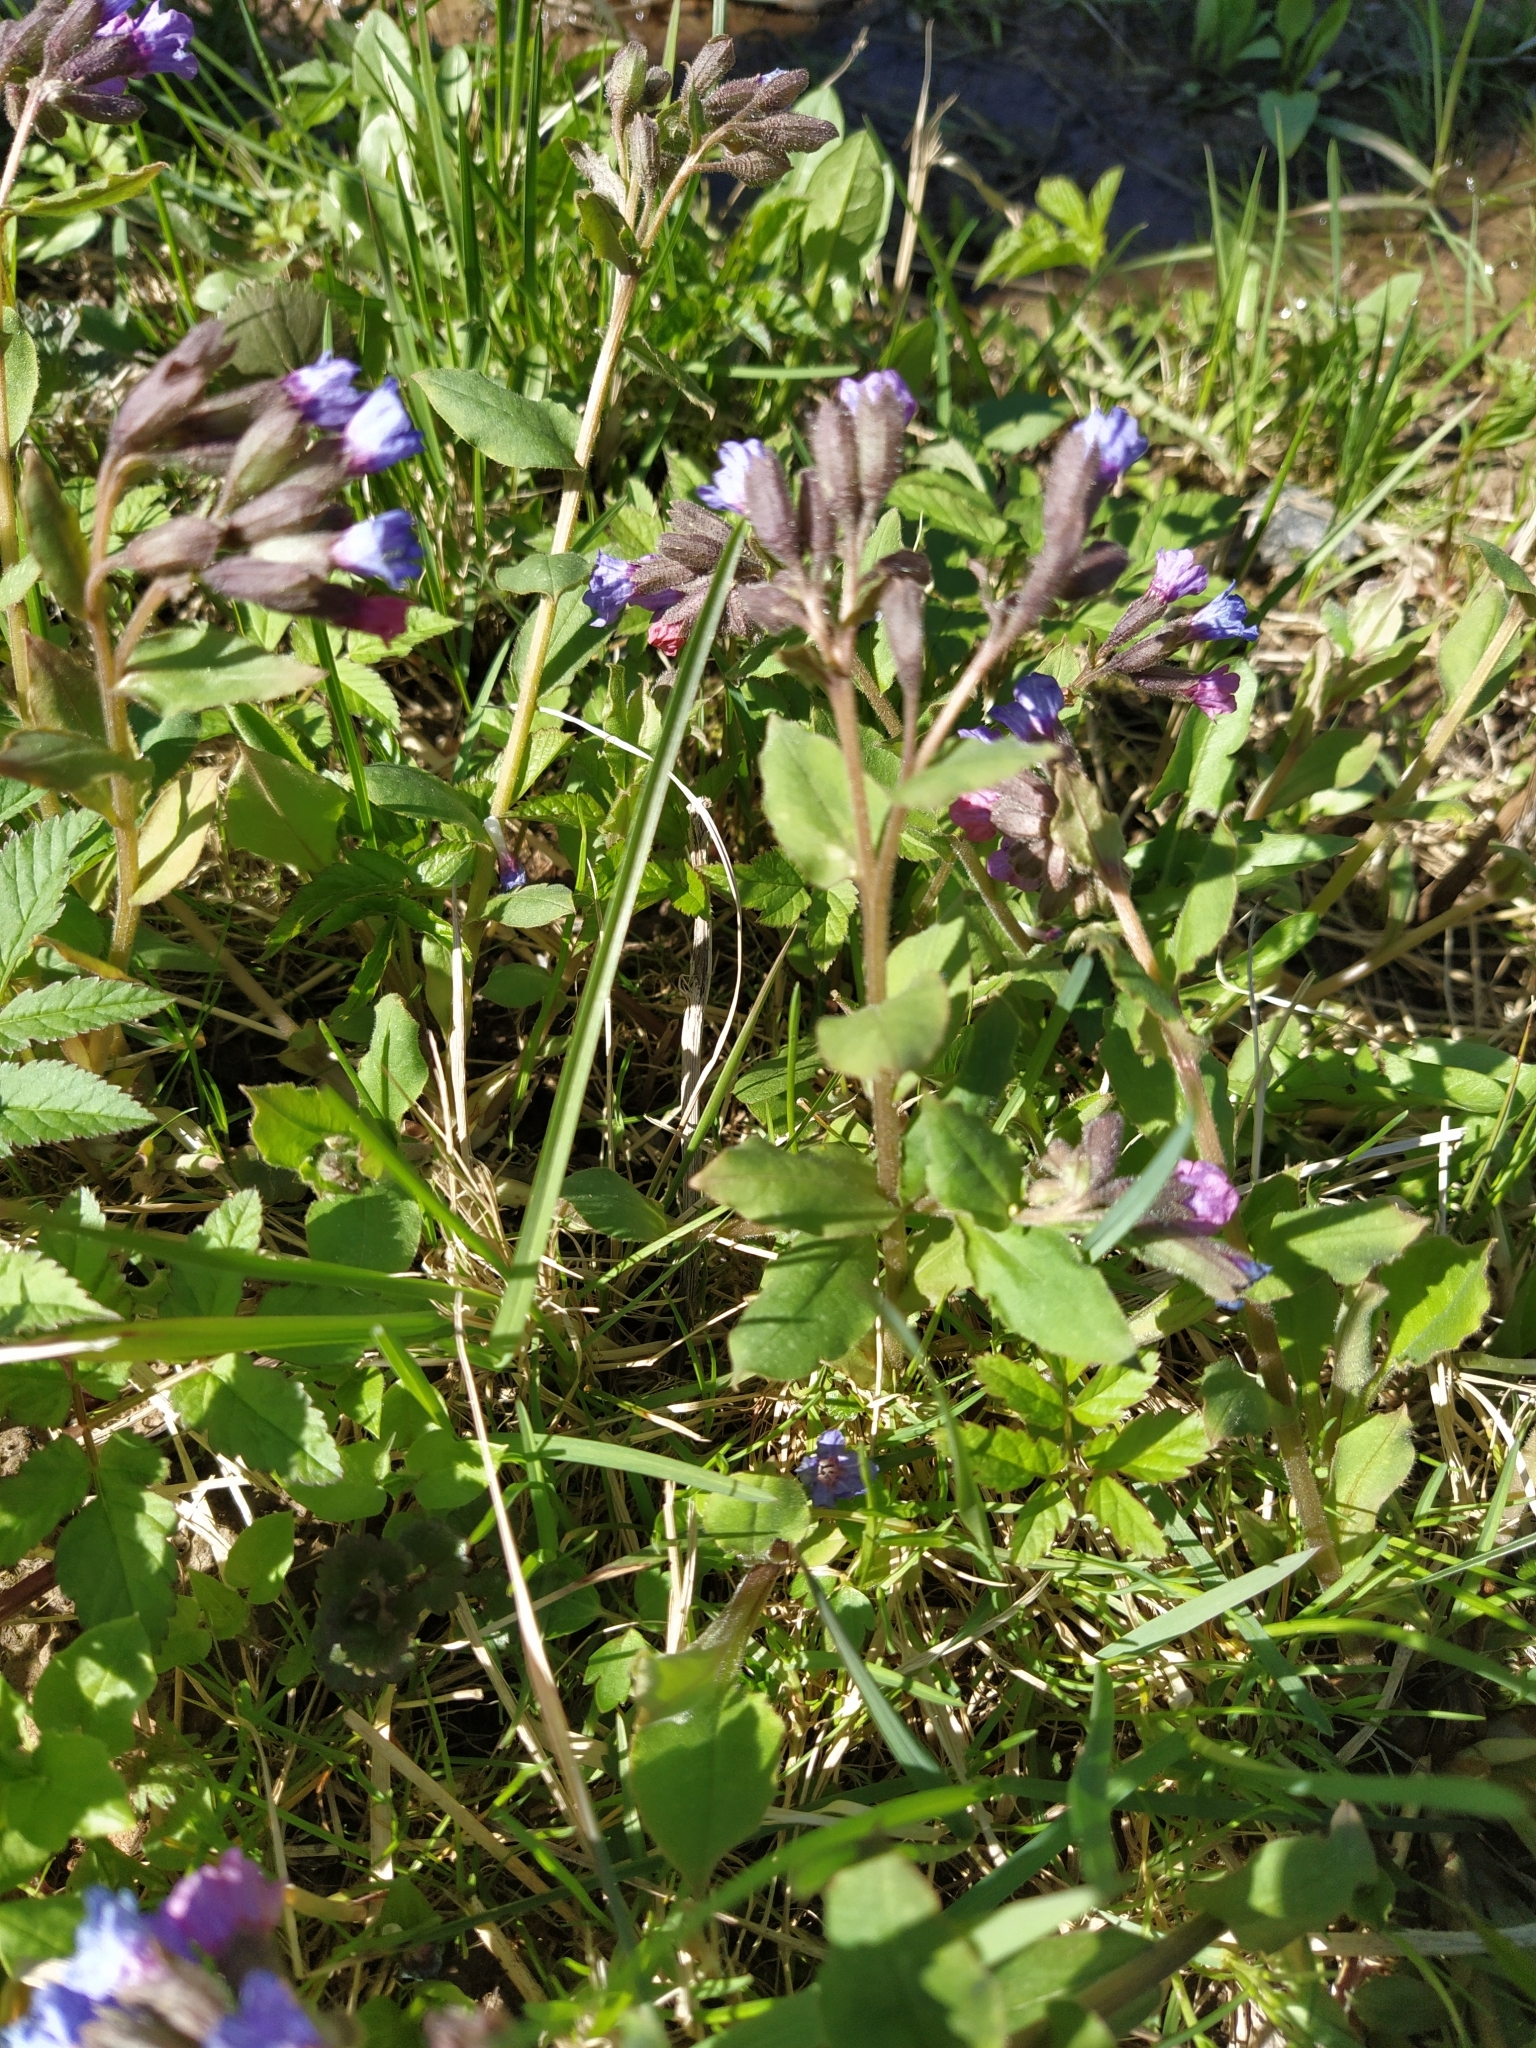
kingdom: Plantae
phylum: Tracheophyta
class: Magnoliopsida
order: Boraginales
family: Boraginaceae
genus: Pulmonaria
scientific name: Pulmonaria obscura
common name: Suffolk lungwort
